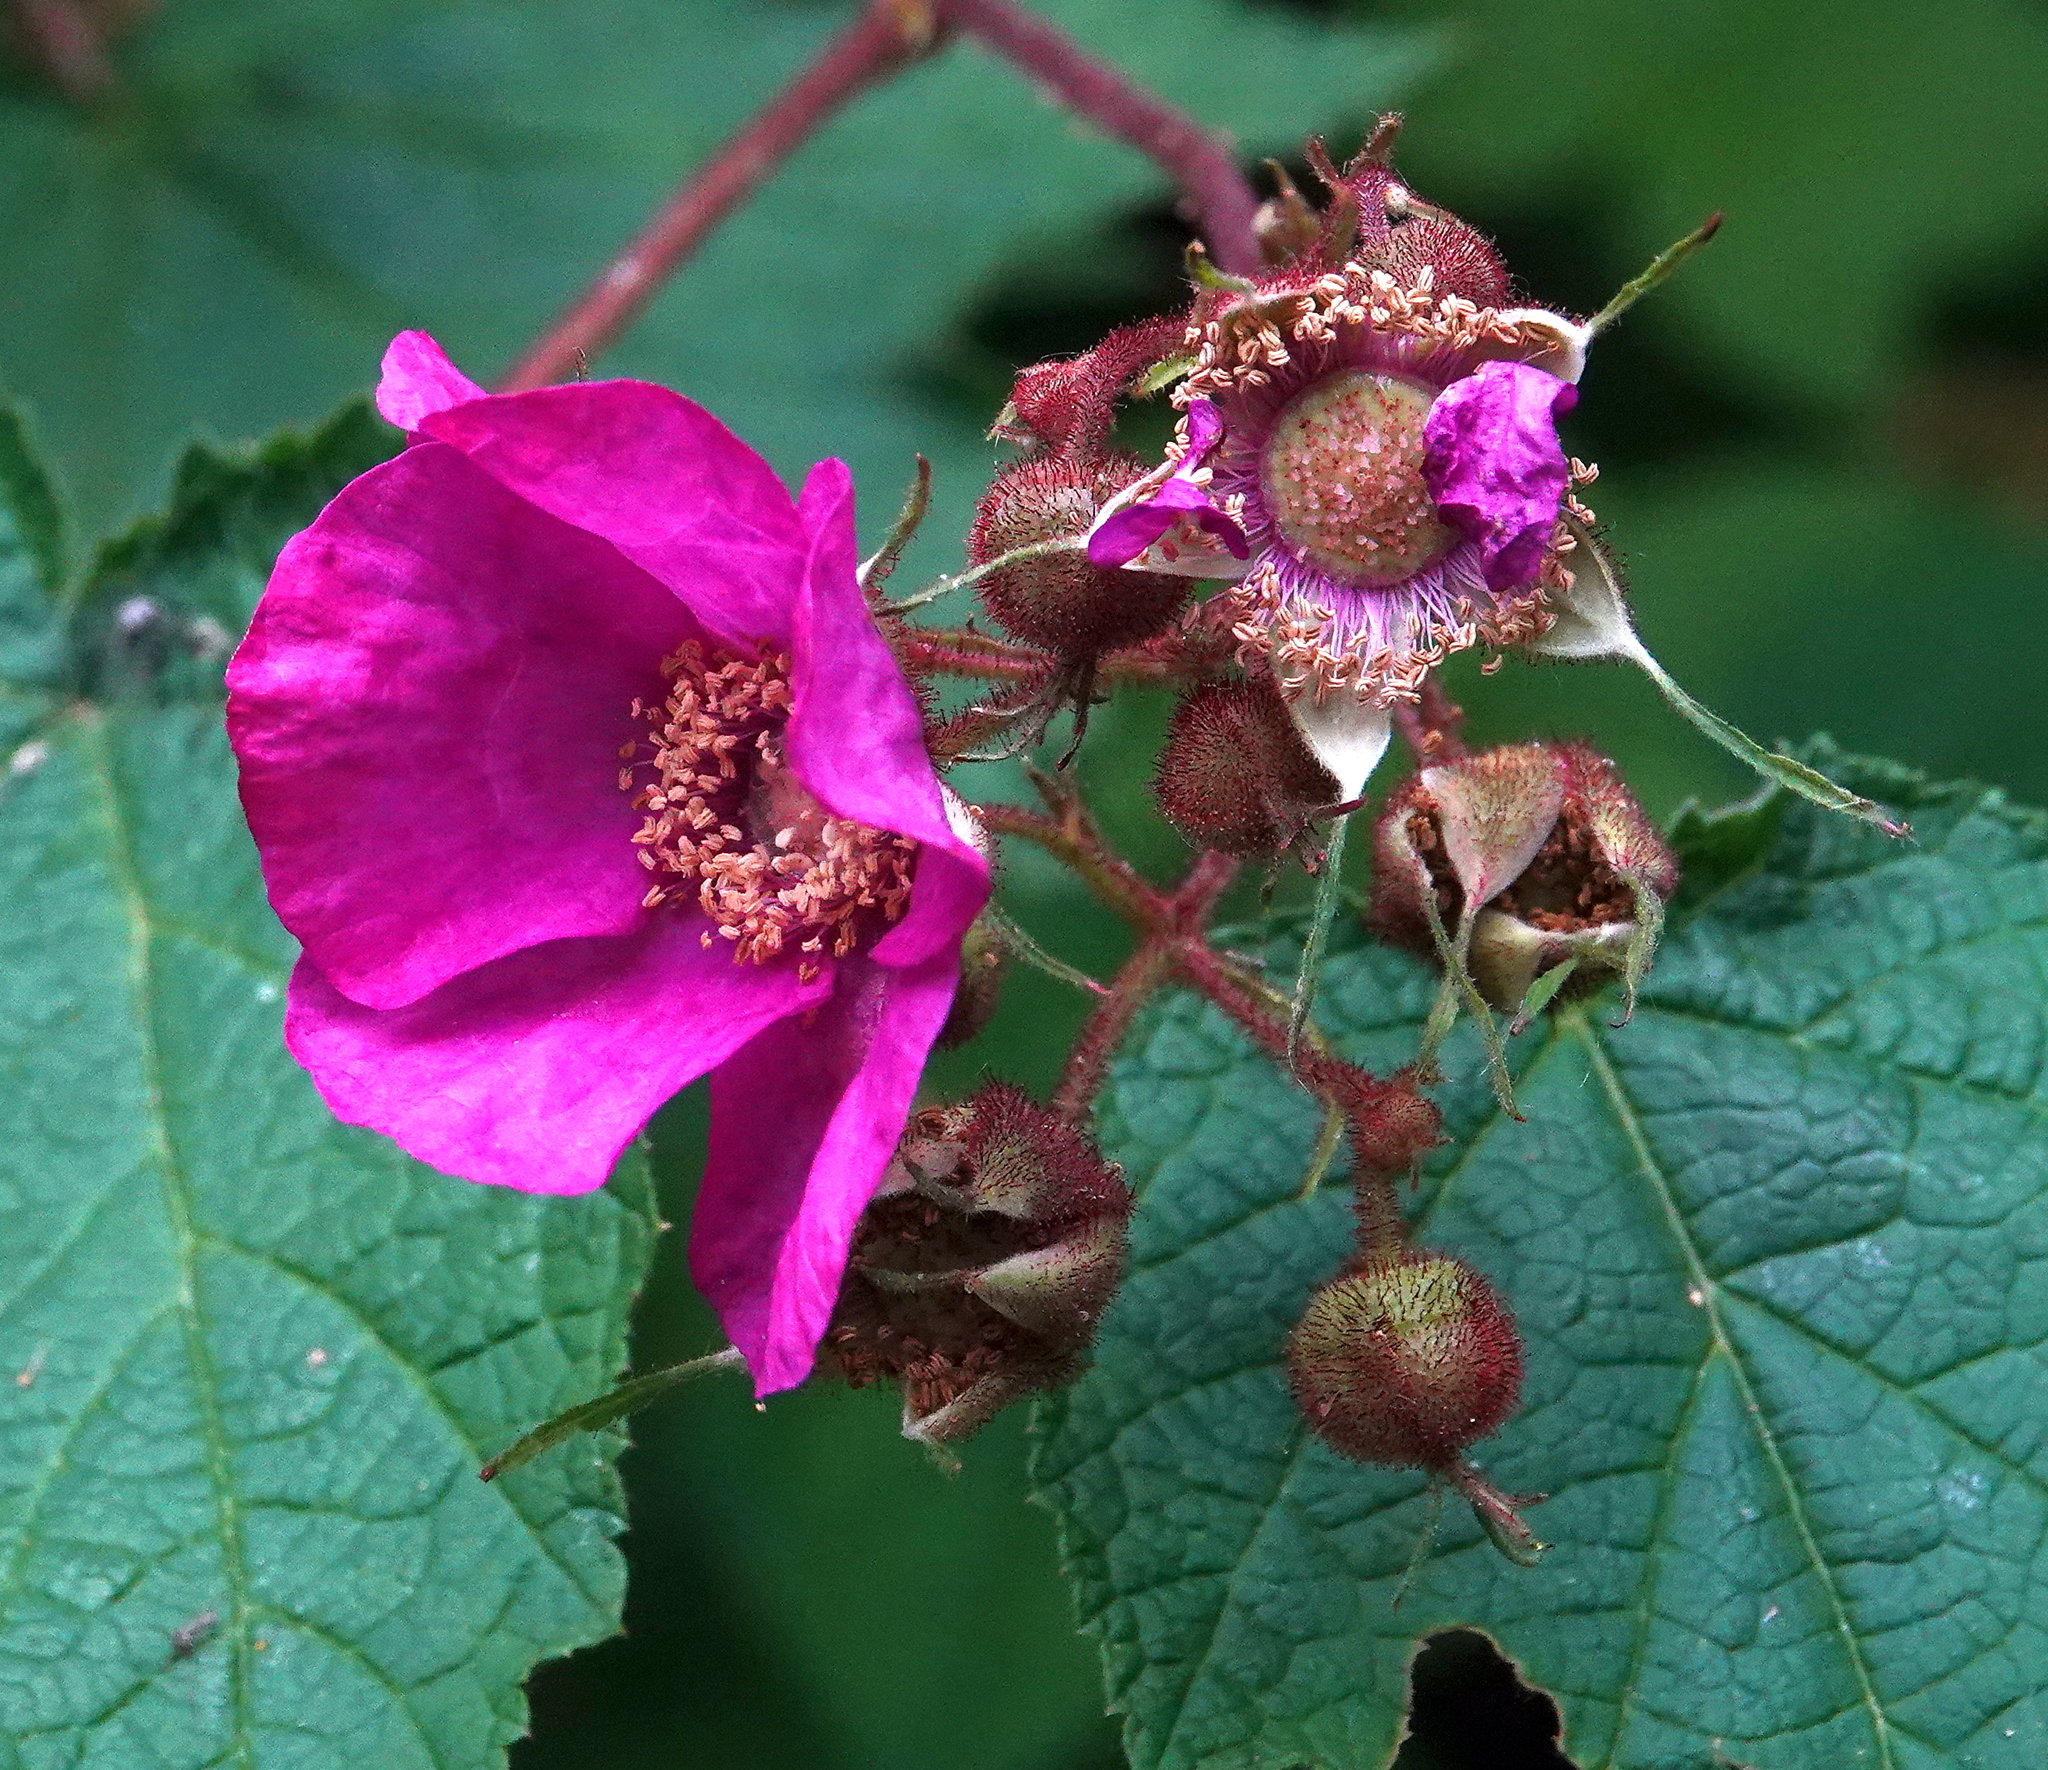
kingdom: Plantae
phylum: Tracheophyta
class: Magnoliopsida
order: Rosales
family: Rosaceae
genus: Rubus
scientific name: Rubus odoratus
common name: Purple-flowered raspberry
